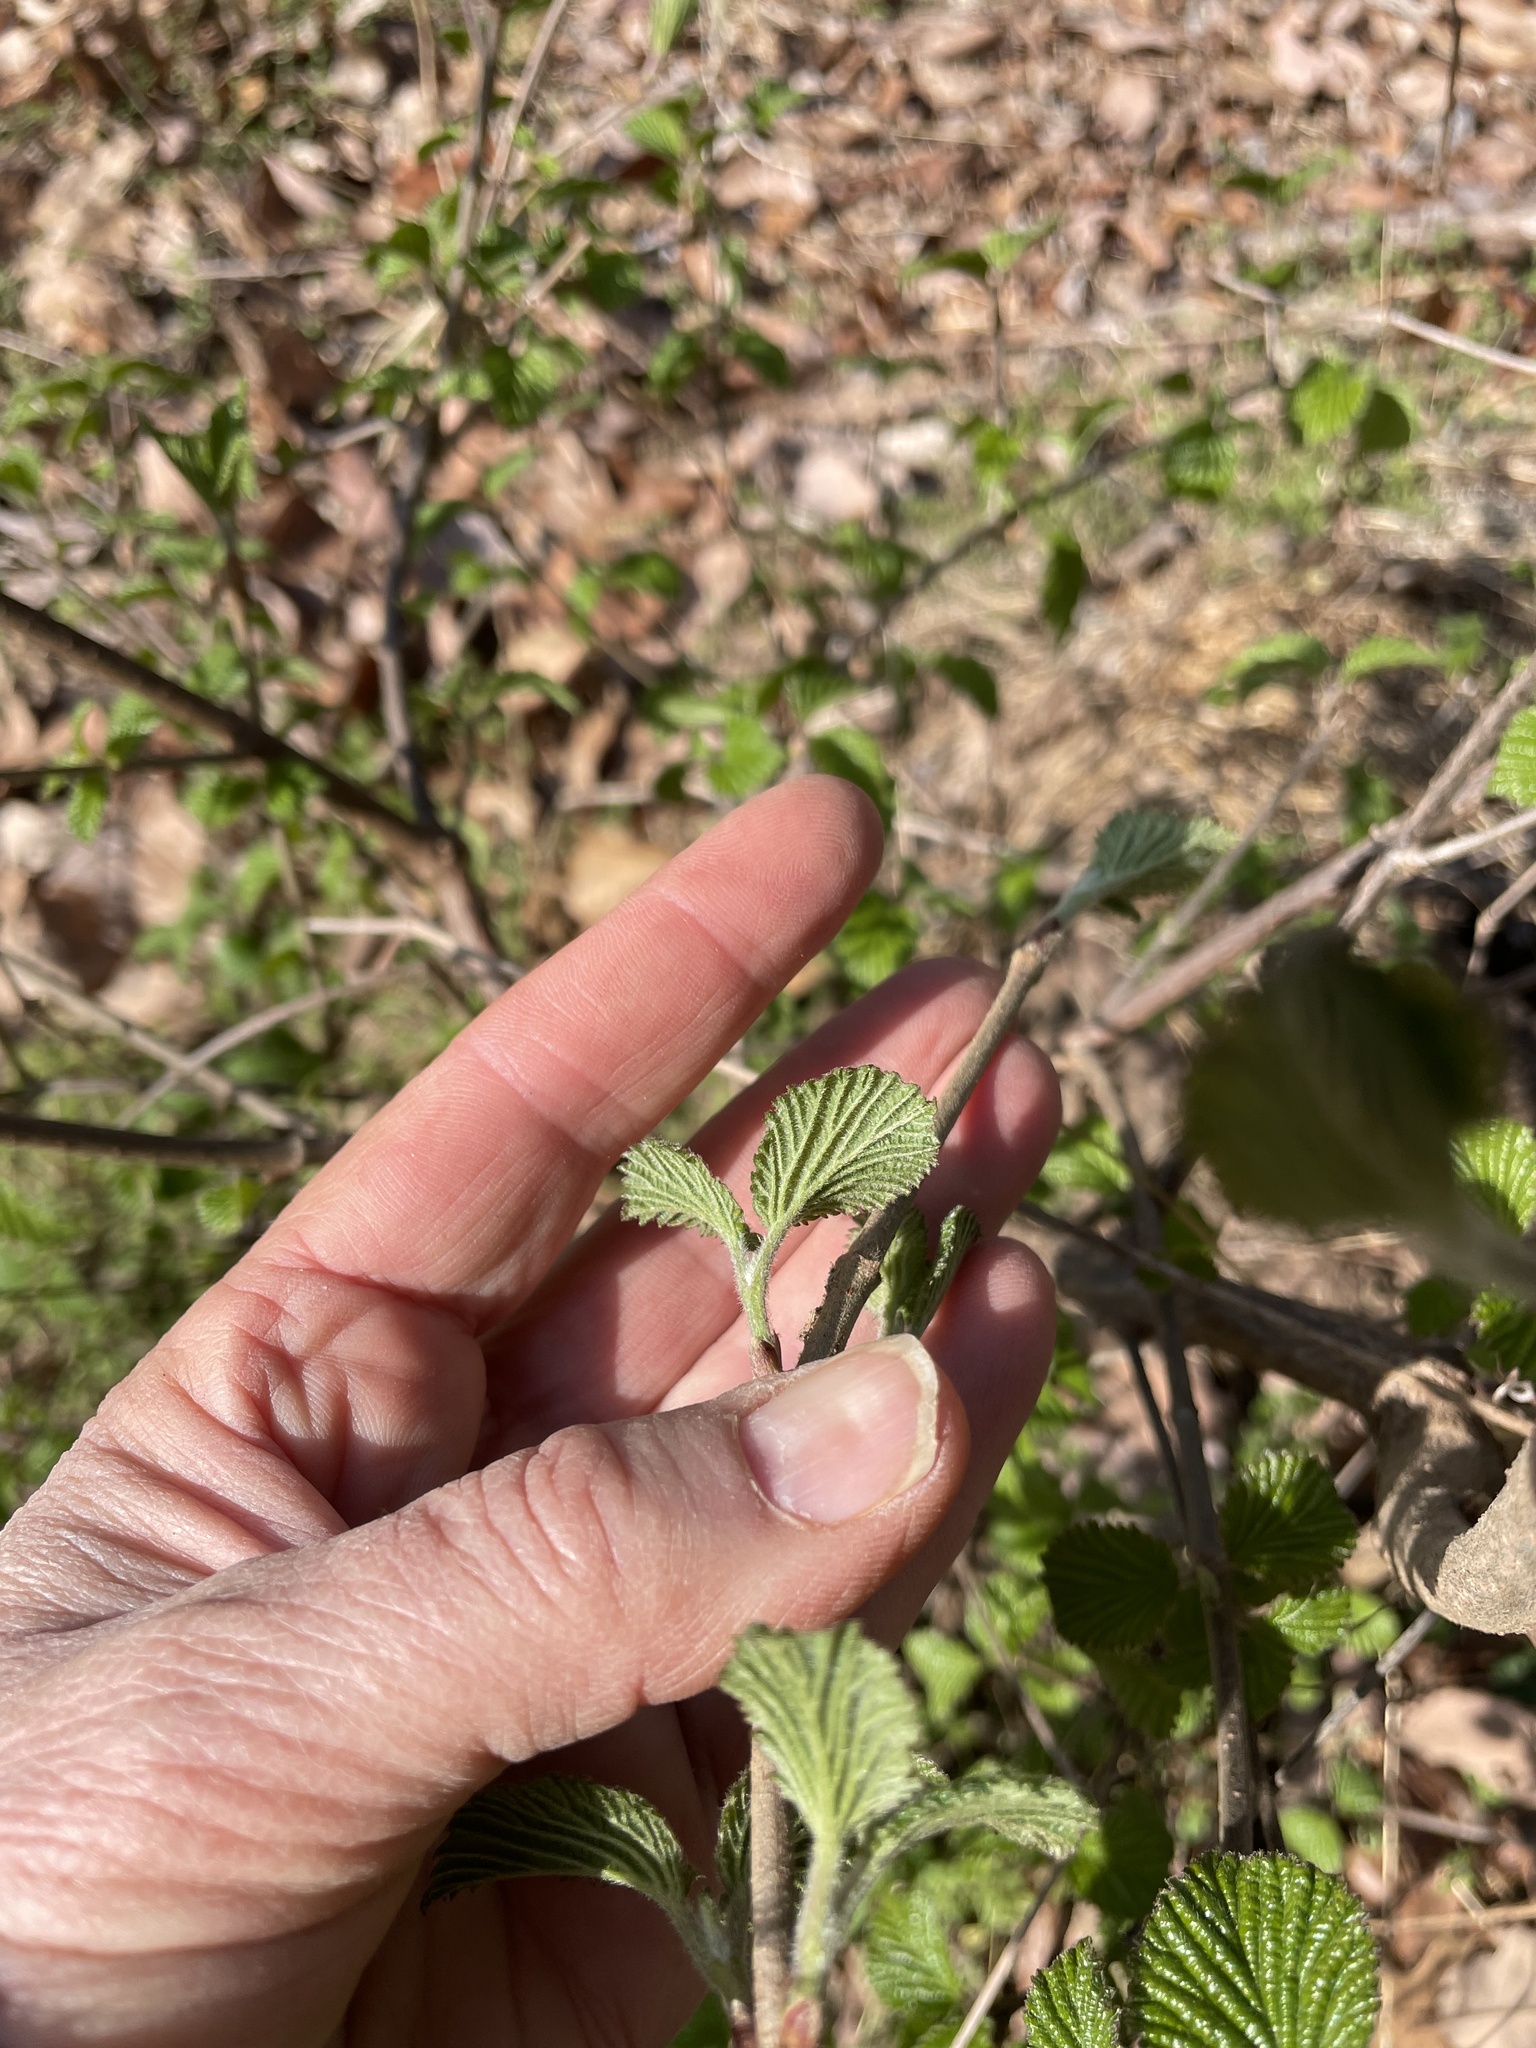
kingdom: Plantae
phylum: Tracheophyta
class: Magnoliopsida
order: Dipsacales
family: Viburnaceae
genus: Viburnum
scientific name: Viburnum dilatatum
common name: Linden arrowwood
